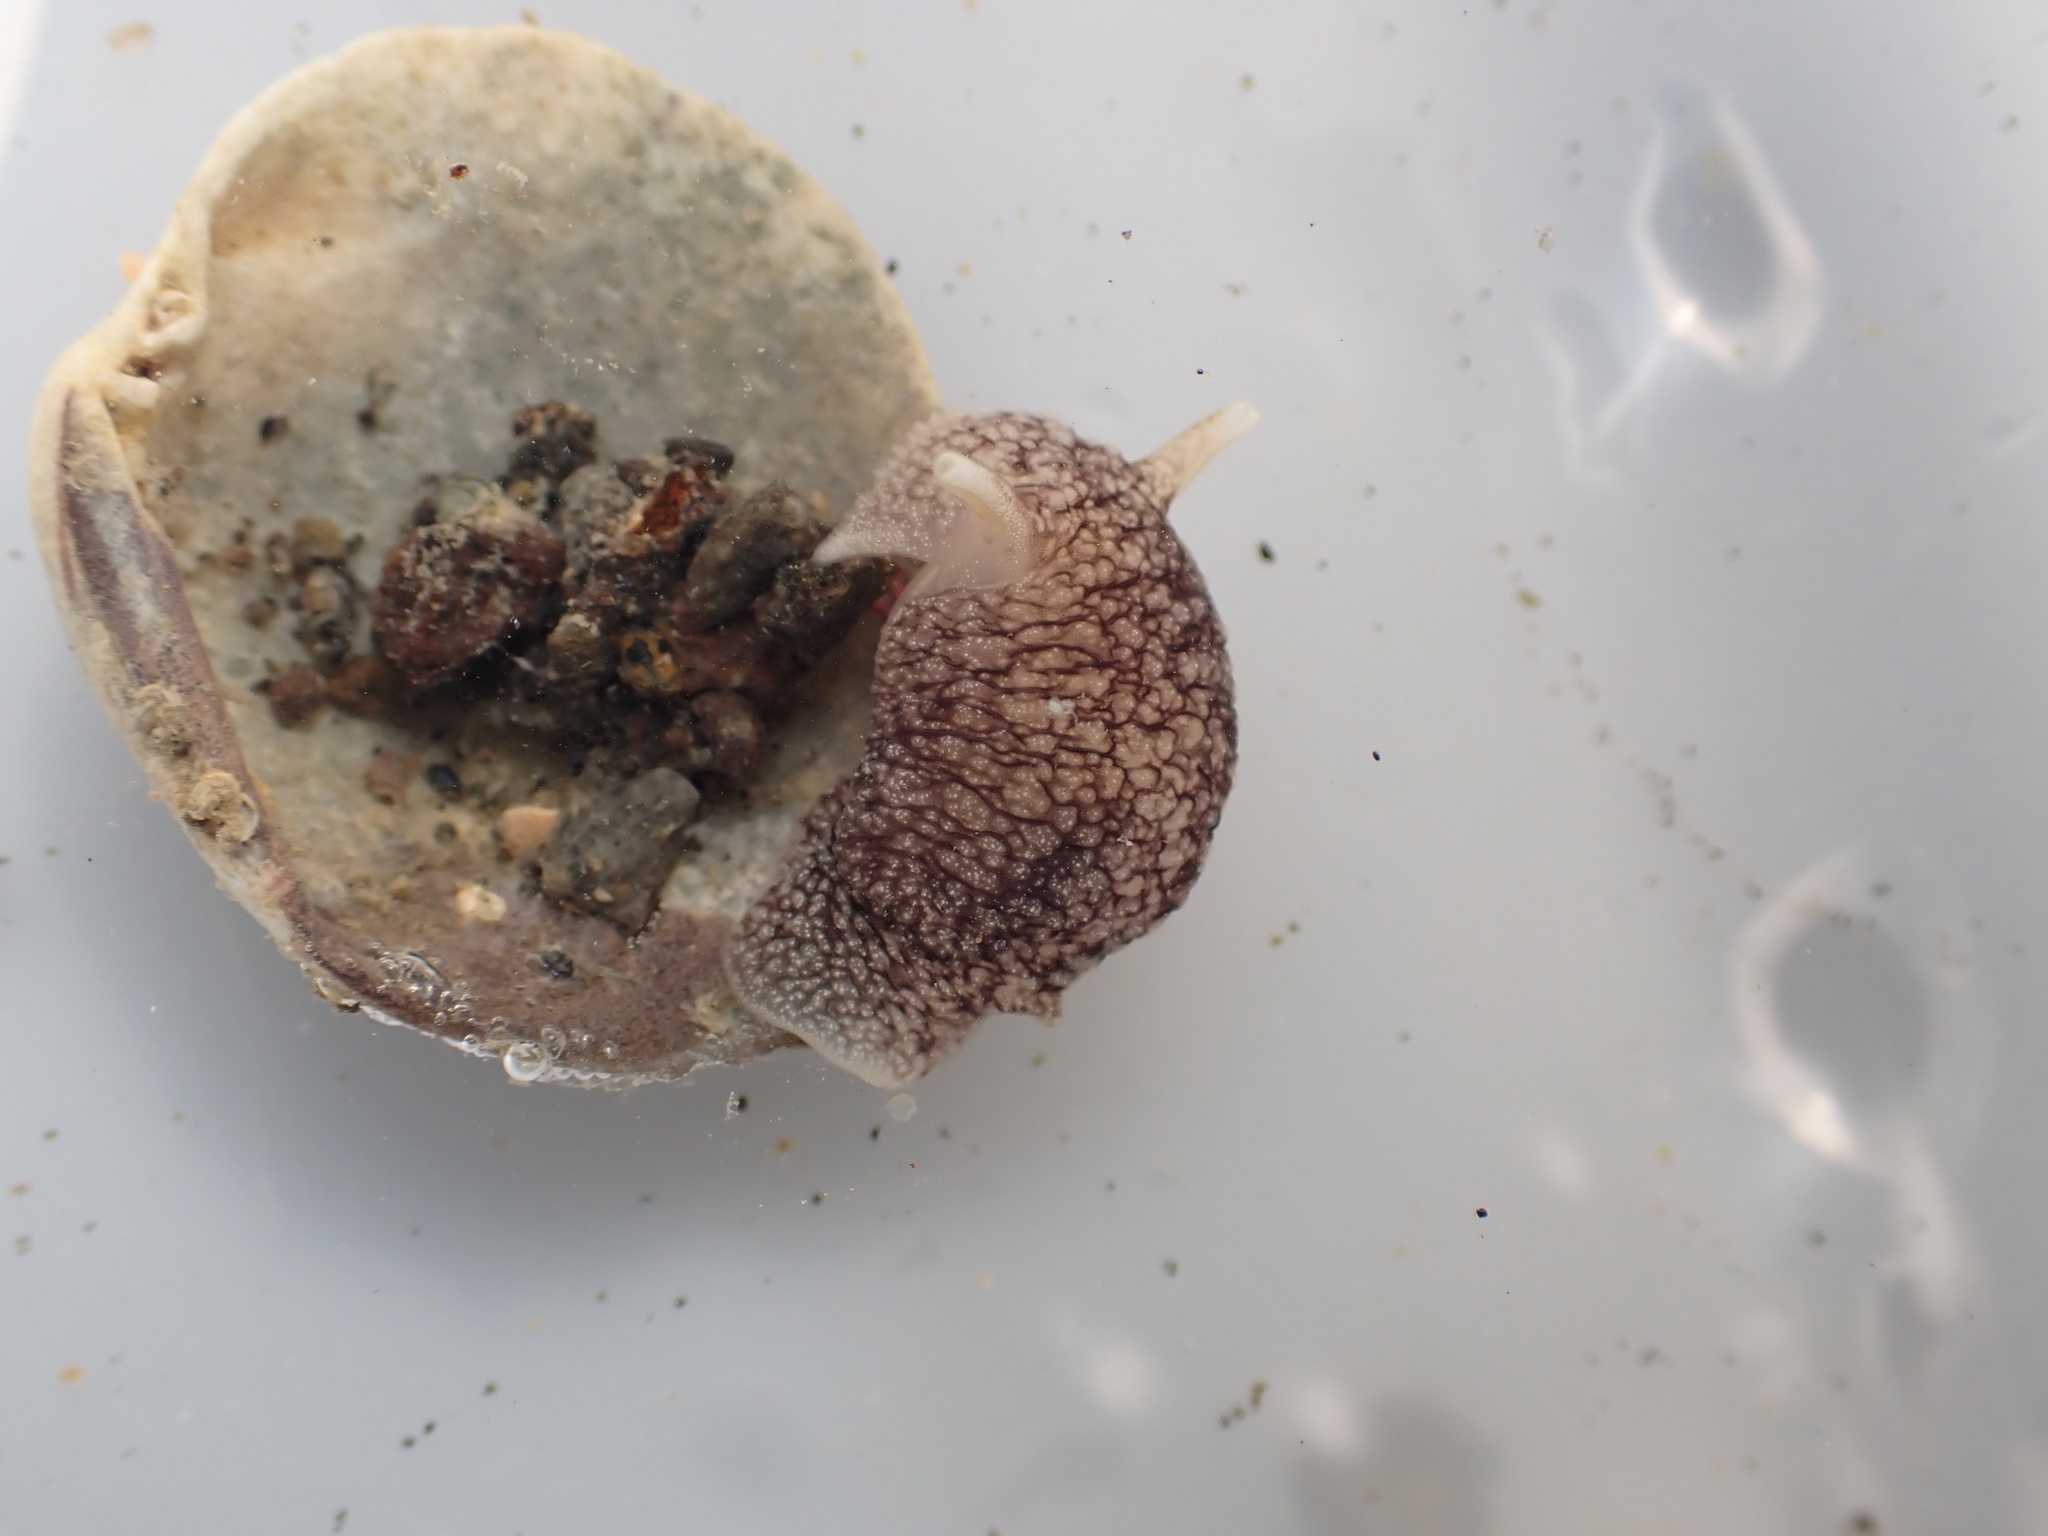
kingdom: Animalia
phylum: Mollusca
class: Gastropoda
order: Pleurobranchida
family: Pleurobranchaeidae
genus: Pleurobranchaea
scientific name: Pleurobranchaea maculata
